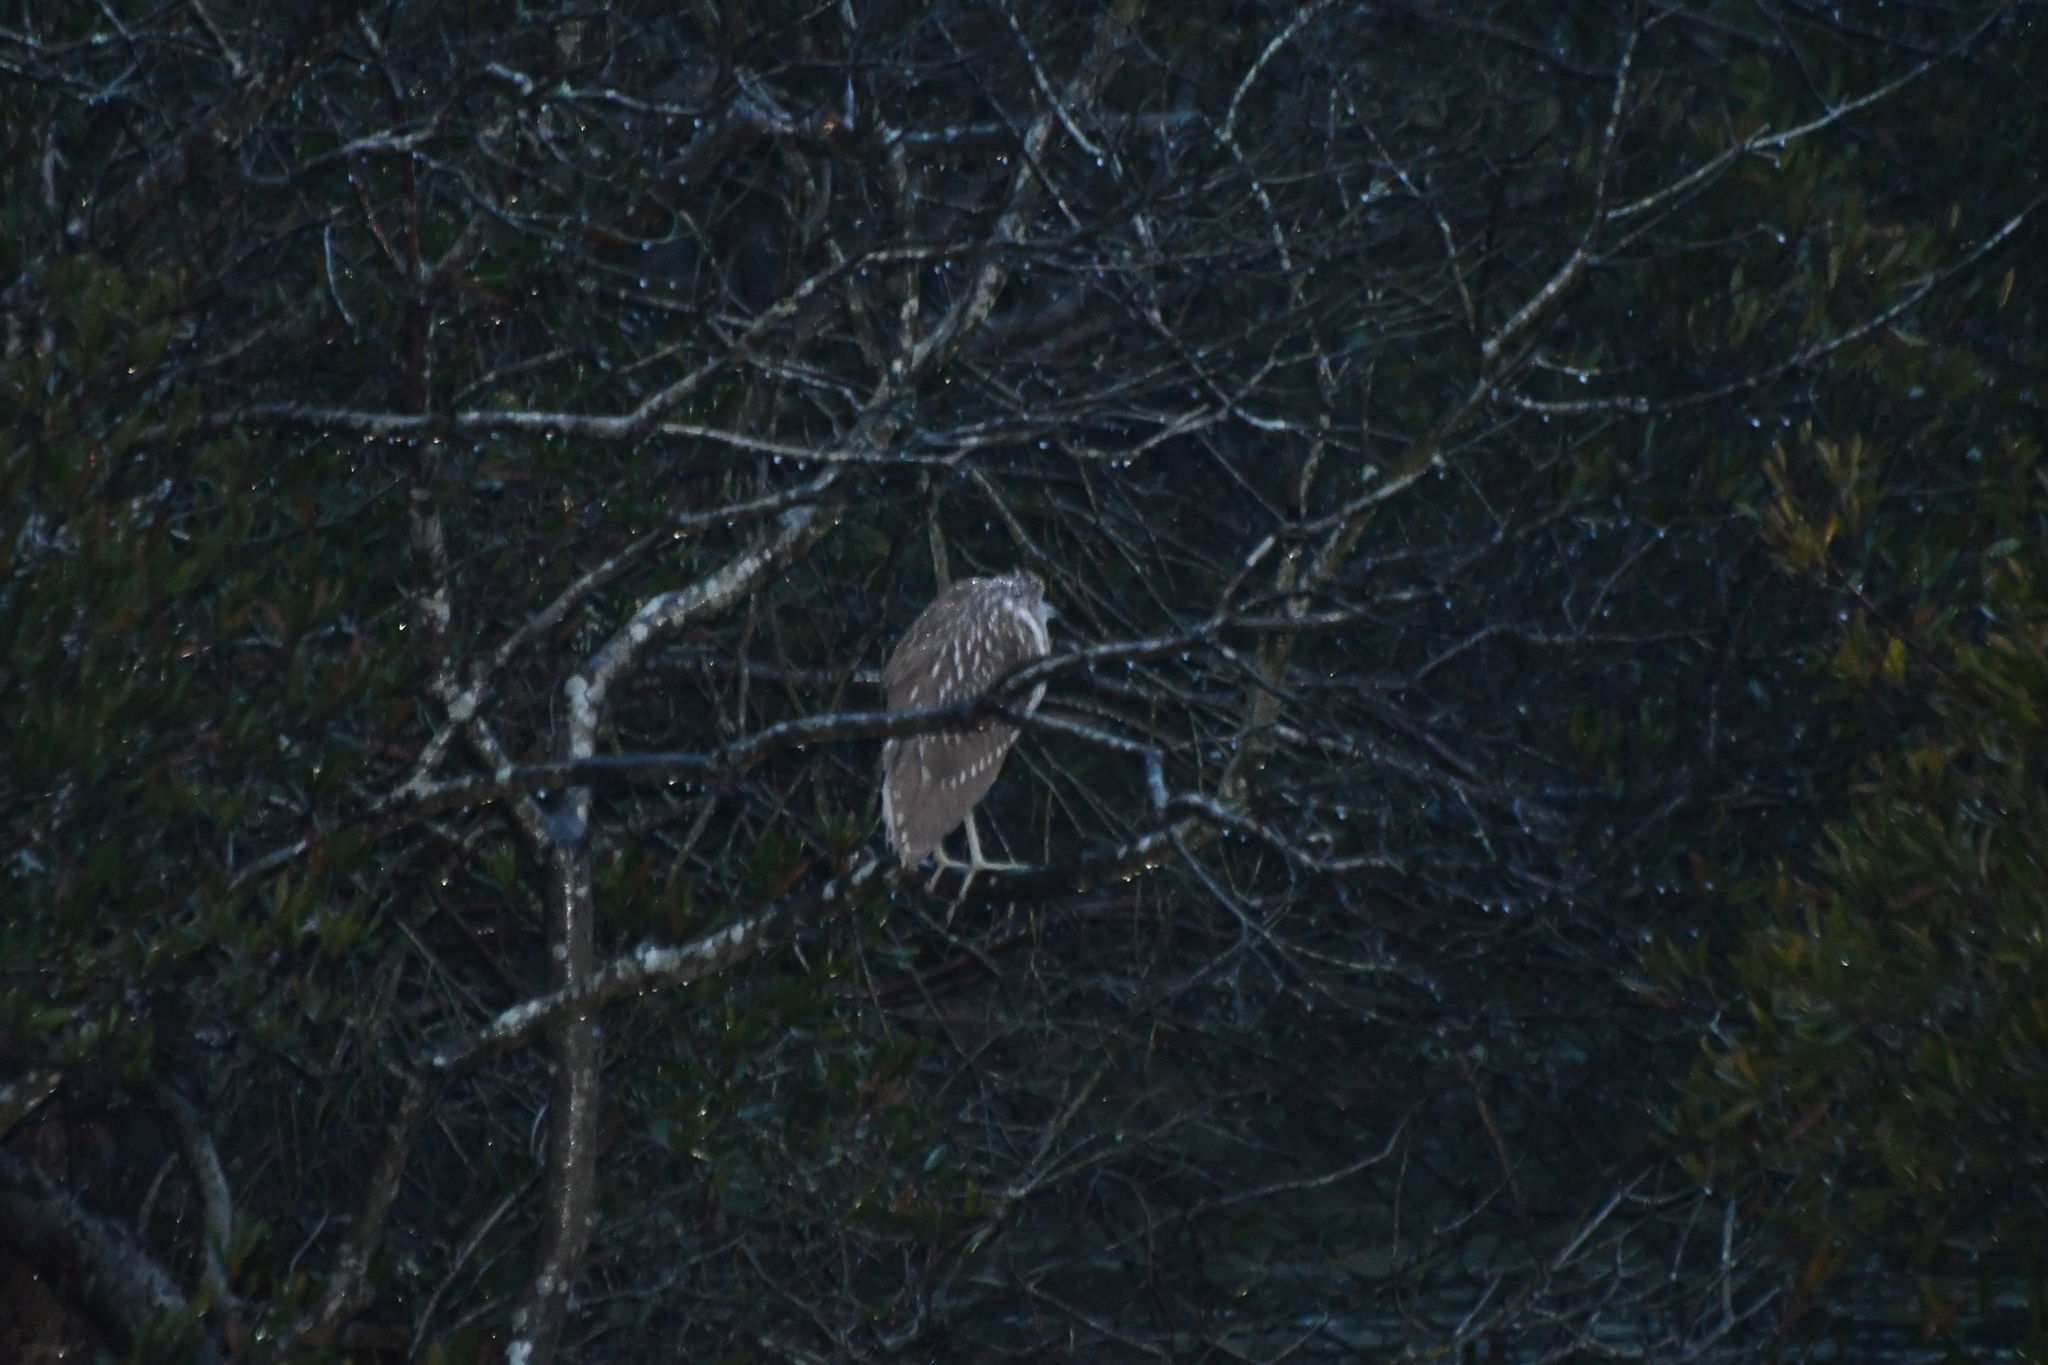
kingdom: Animalia
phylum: Chordata
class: Aves
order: Pelecaniformes
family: Ardeidae
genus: Nycticorax
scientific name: Nycticorax nycticorax
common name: Black-crowned night heron
